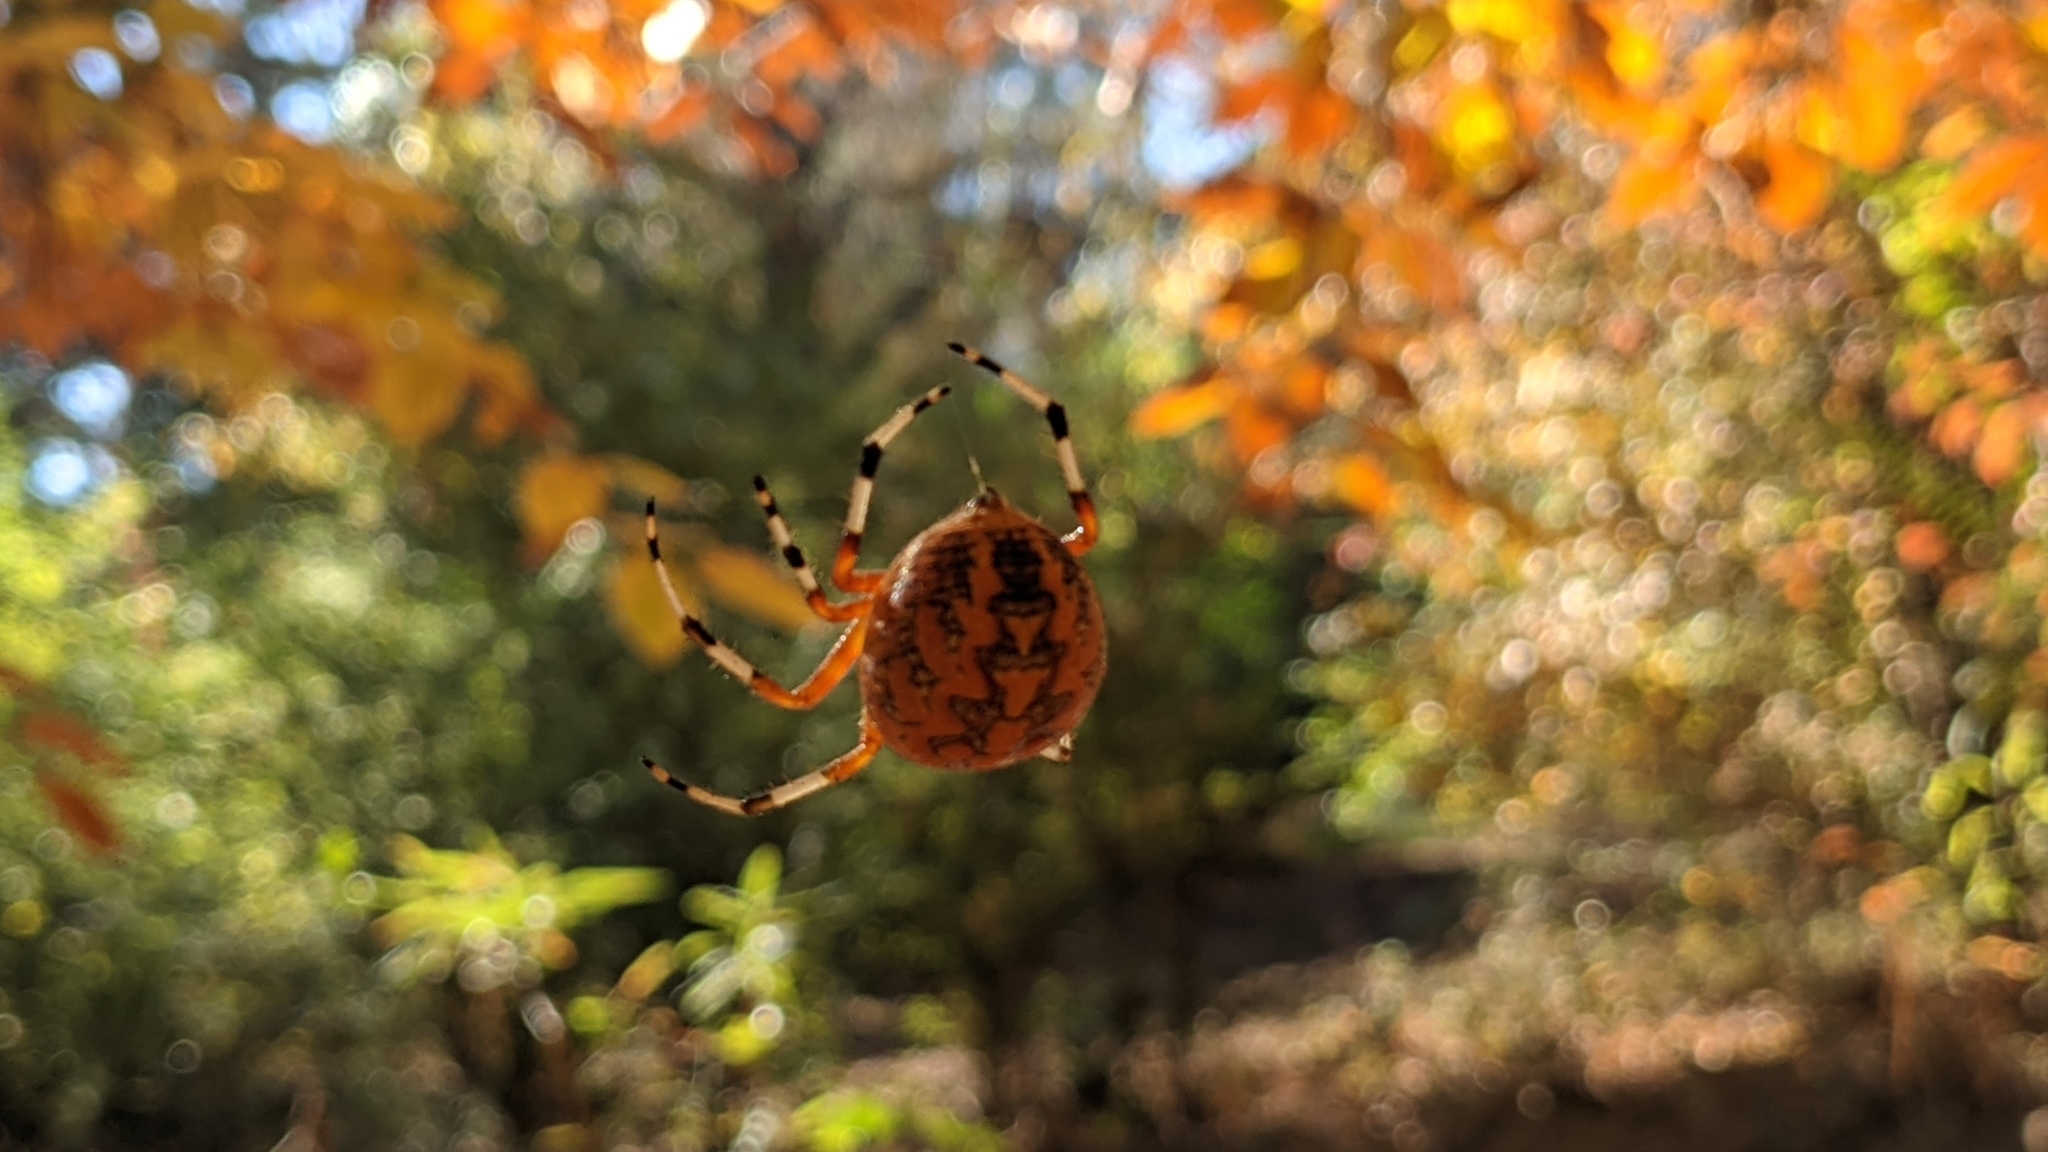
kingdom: Animalia
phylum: Arthropoda
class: Arachnida
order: Araneae
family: Araneidae
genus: Araneus
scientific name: Araneus marmoreus
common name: Marbled orbweaver
